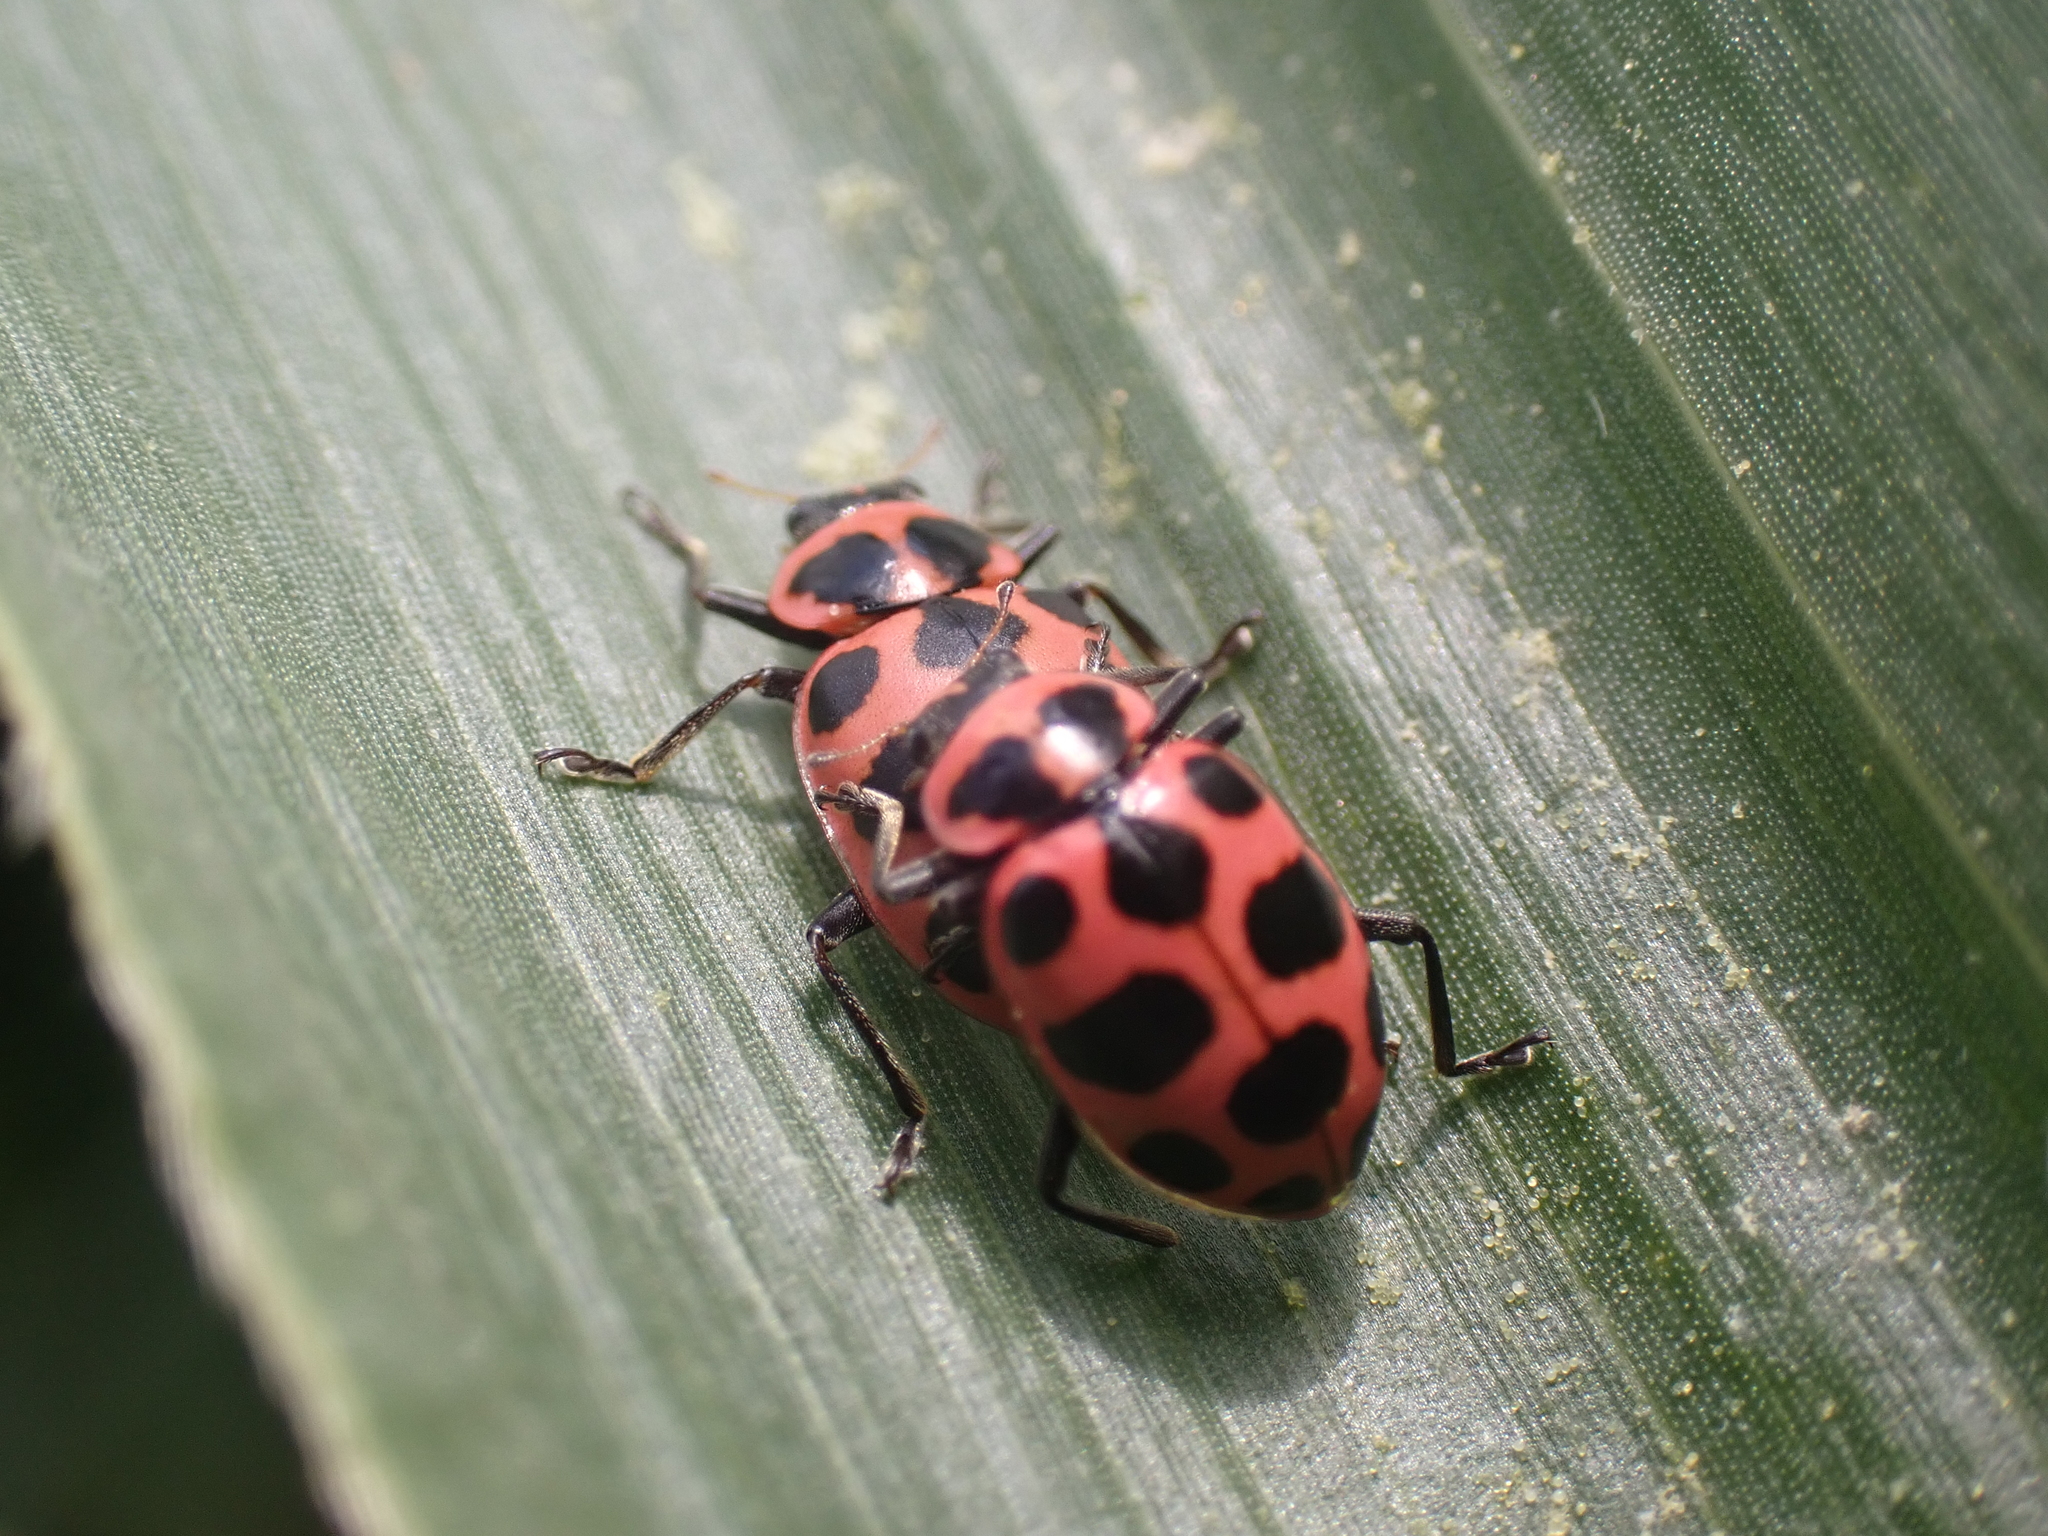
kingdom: Animalia
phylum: Arthropoda
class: Insecta
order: Coleoptera
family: Coccinellidae
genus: Coleomegilla
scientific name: Coleomegilla maculata
